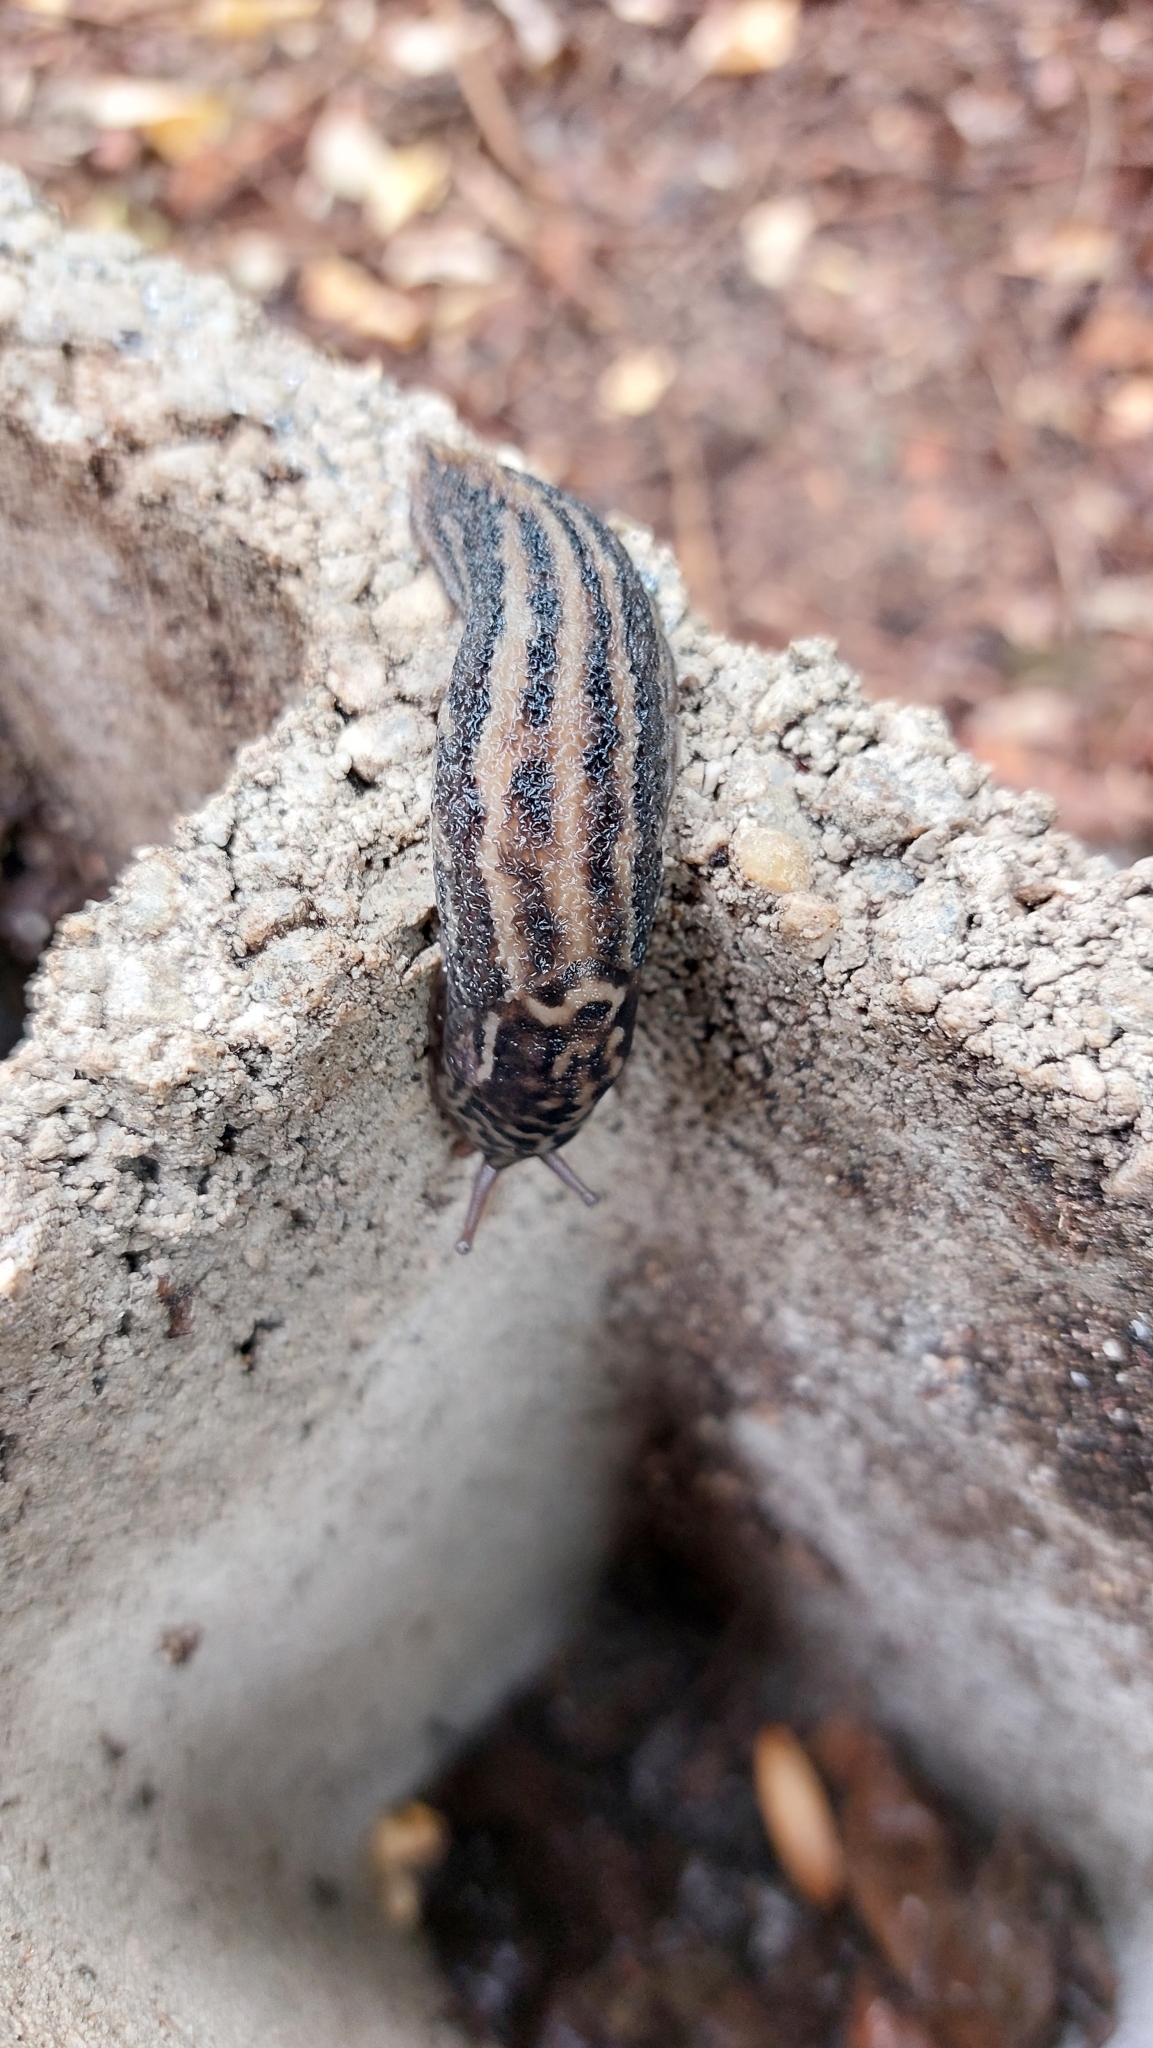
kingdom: Animalia
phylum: Mollusca
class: Gastropoda
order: Stylommatophora
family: Limacidae
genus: Limax
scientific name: Limax maximus
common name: Great grey slug
